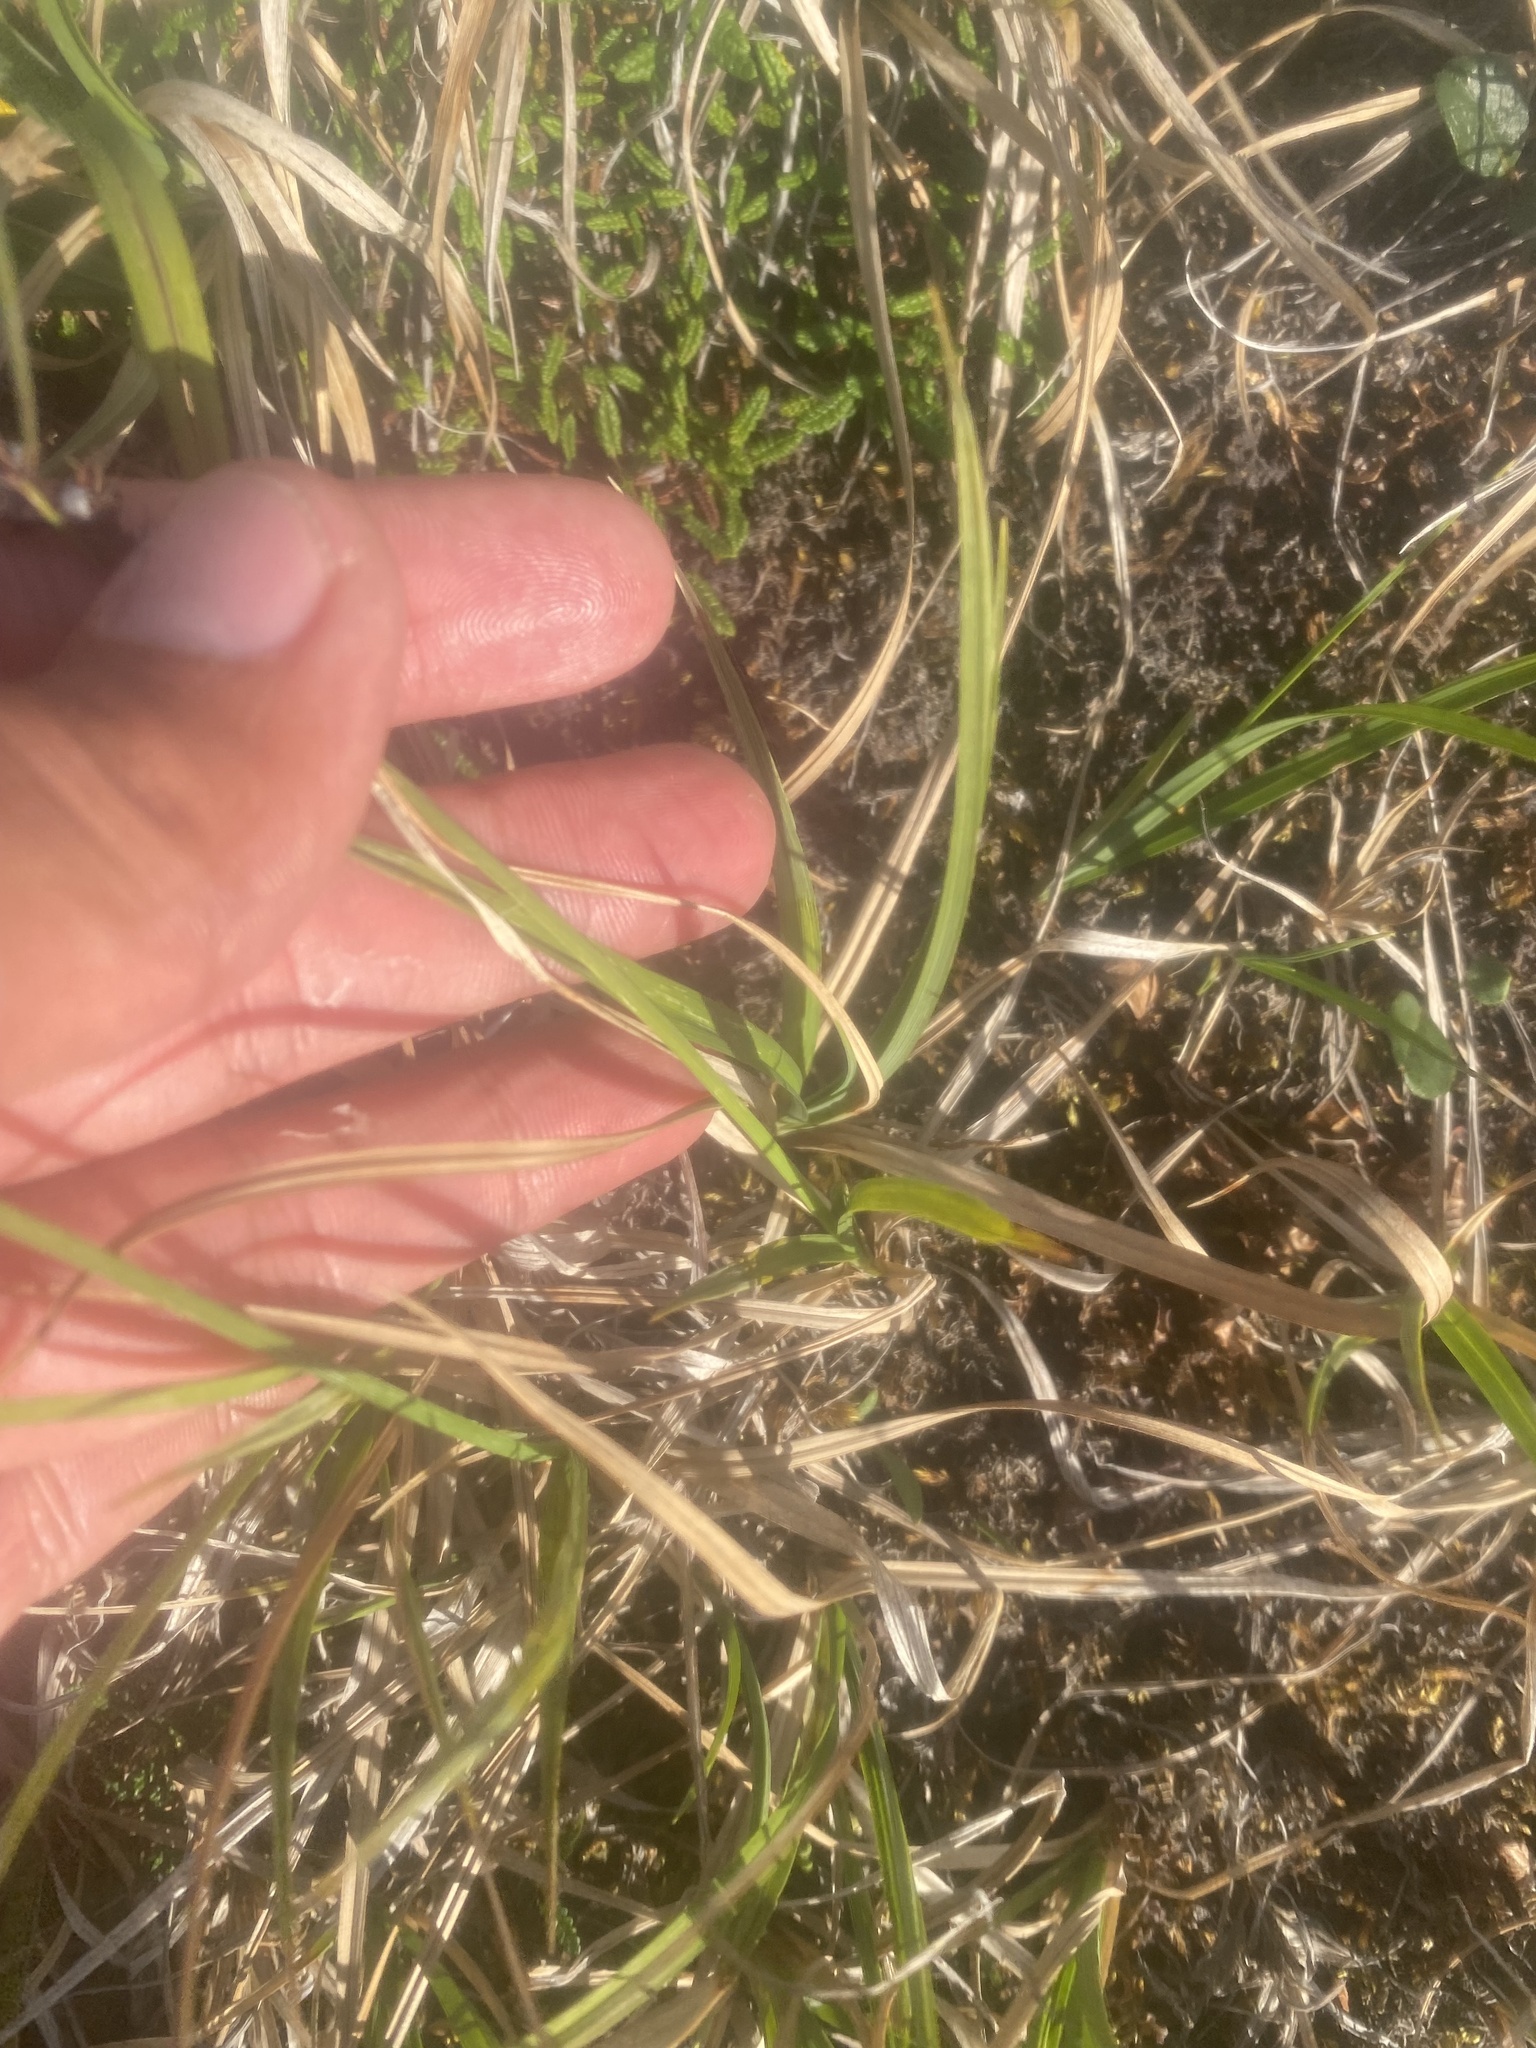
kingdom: Plantae
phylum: Tracheophyta
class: Liliopsida
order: Poales
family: Cyperaceae
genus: Carex
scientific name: Carex bigelowii
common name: Stiff sedge
